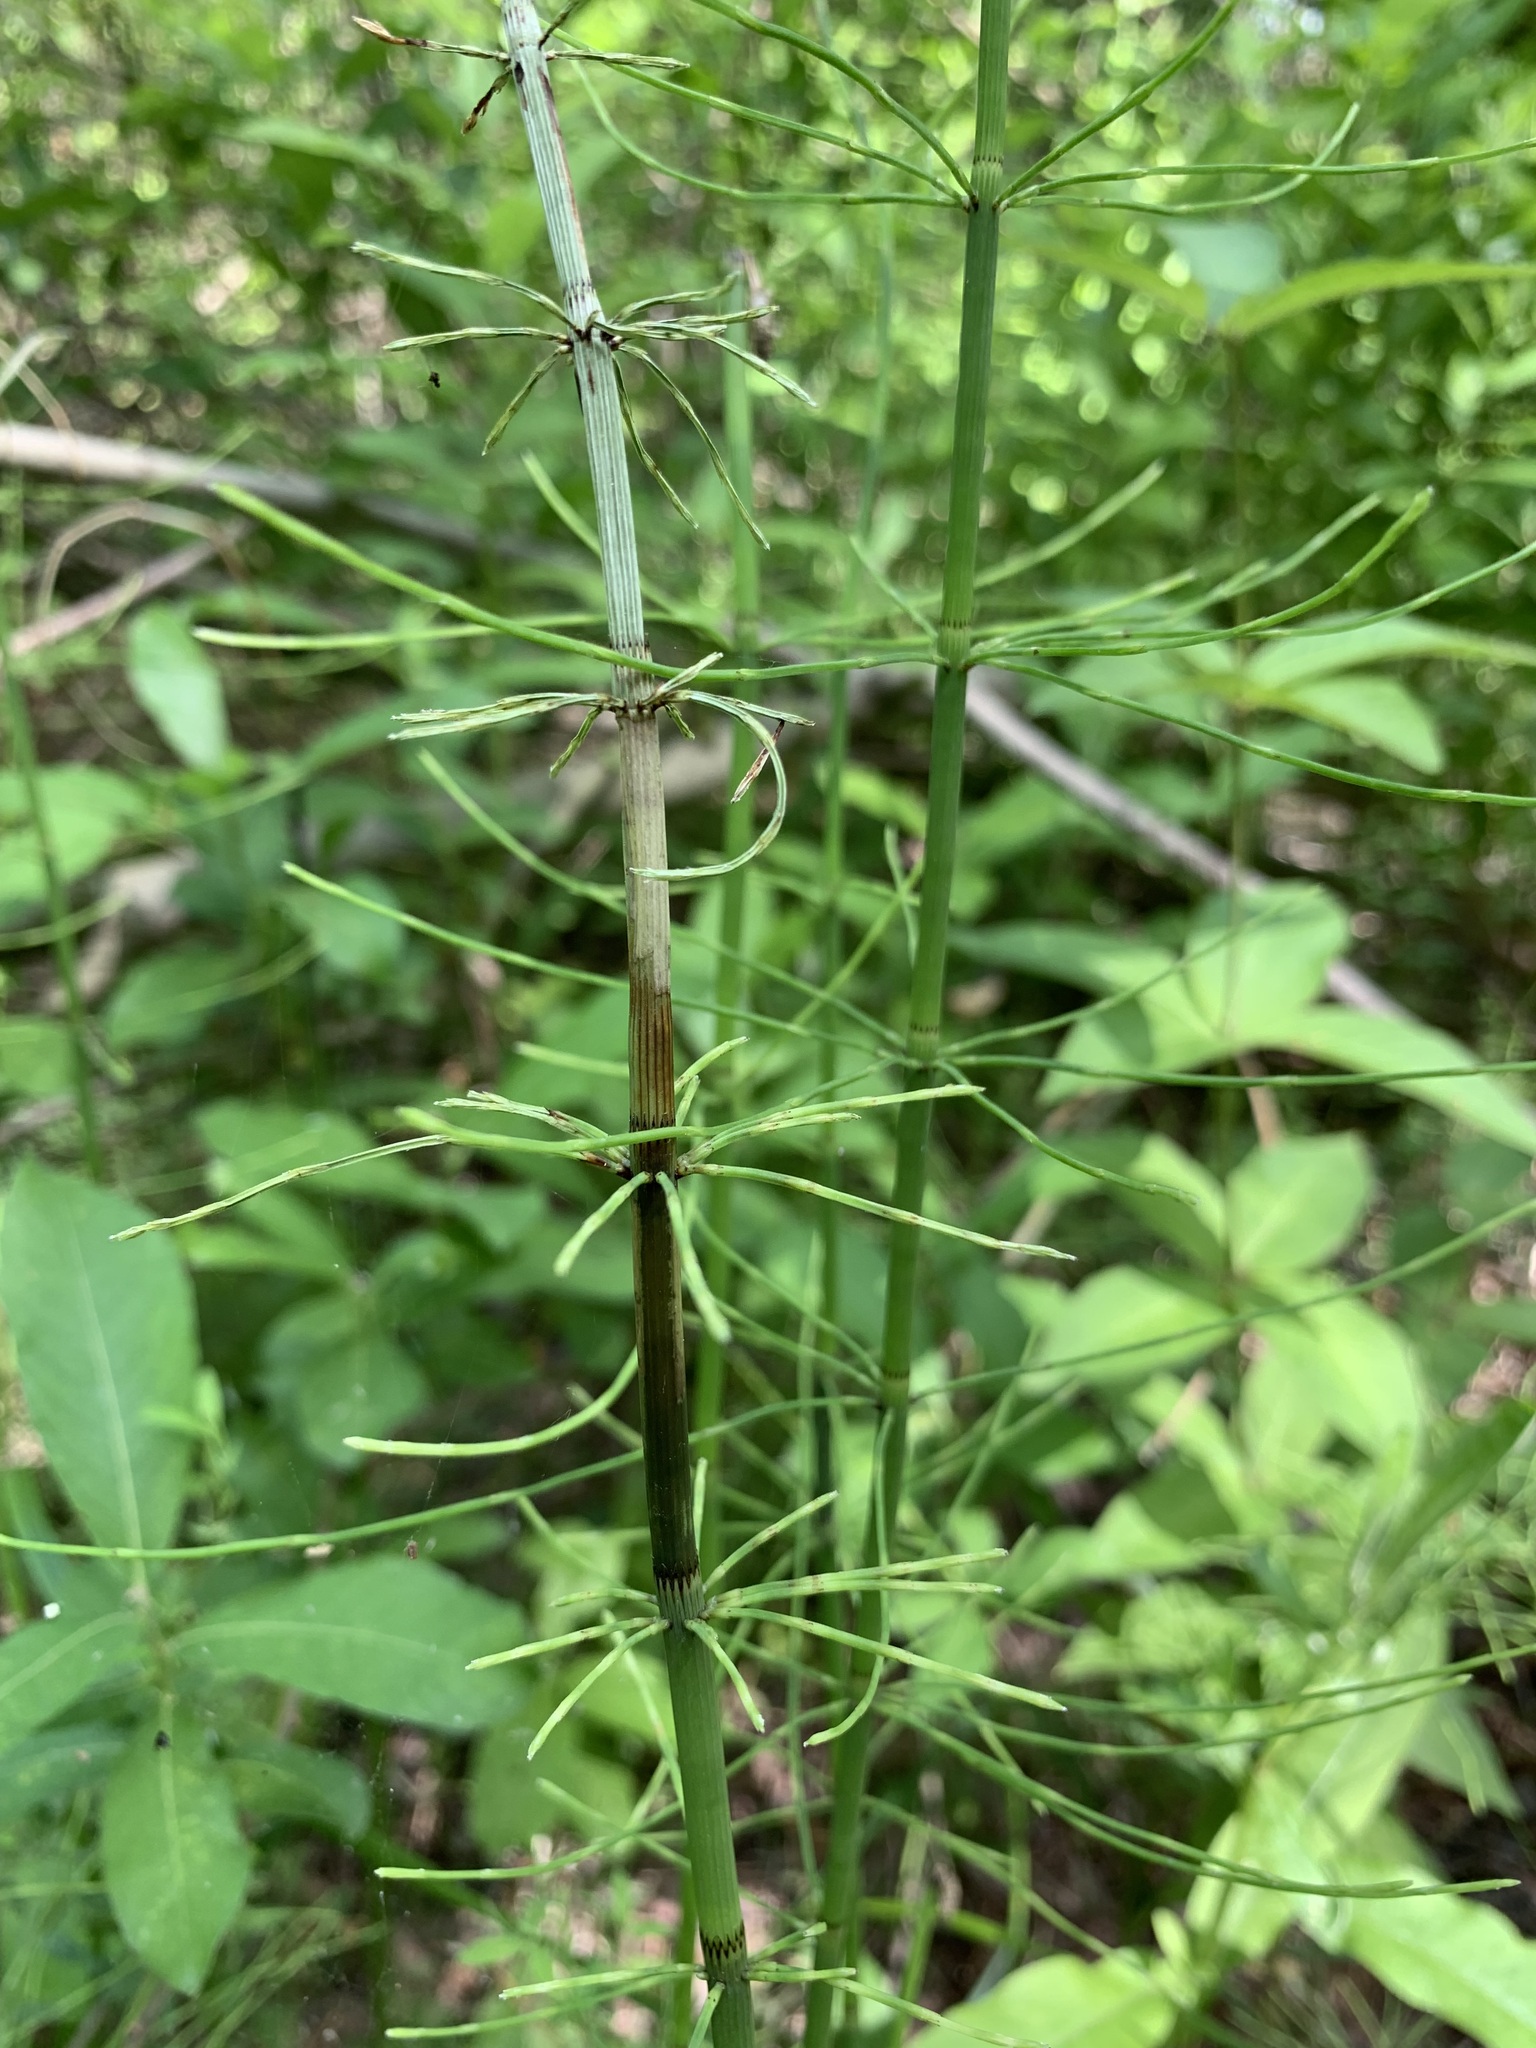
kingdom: Plantae
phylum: Tracheophyta
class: Polypodiopsida
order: Equisetales
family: Equisetaceae
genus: Equisetum
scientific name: Equisetum fluviatile
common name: Water horsetail
